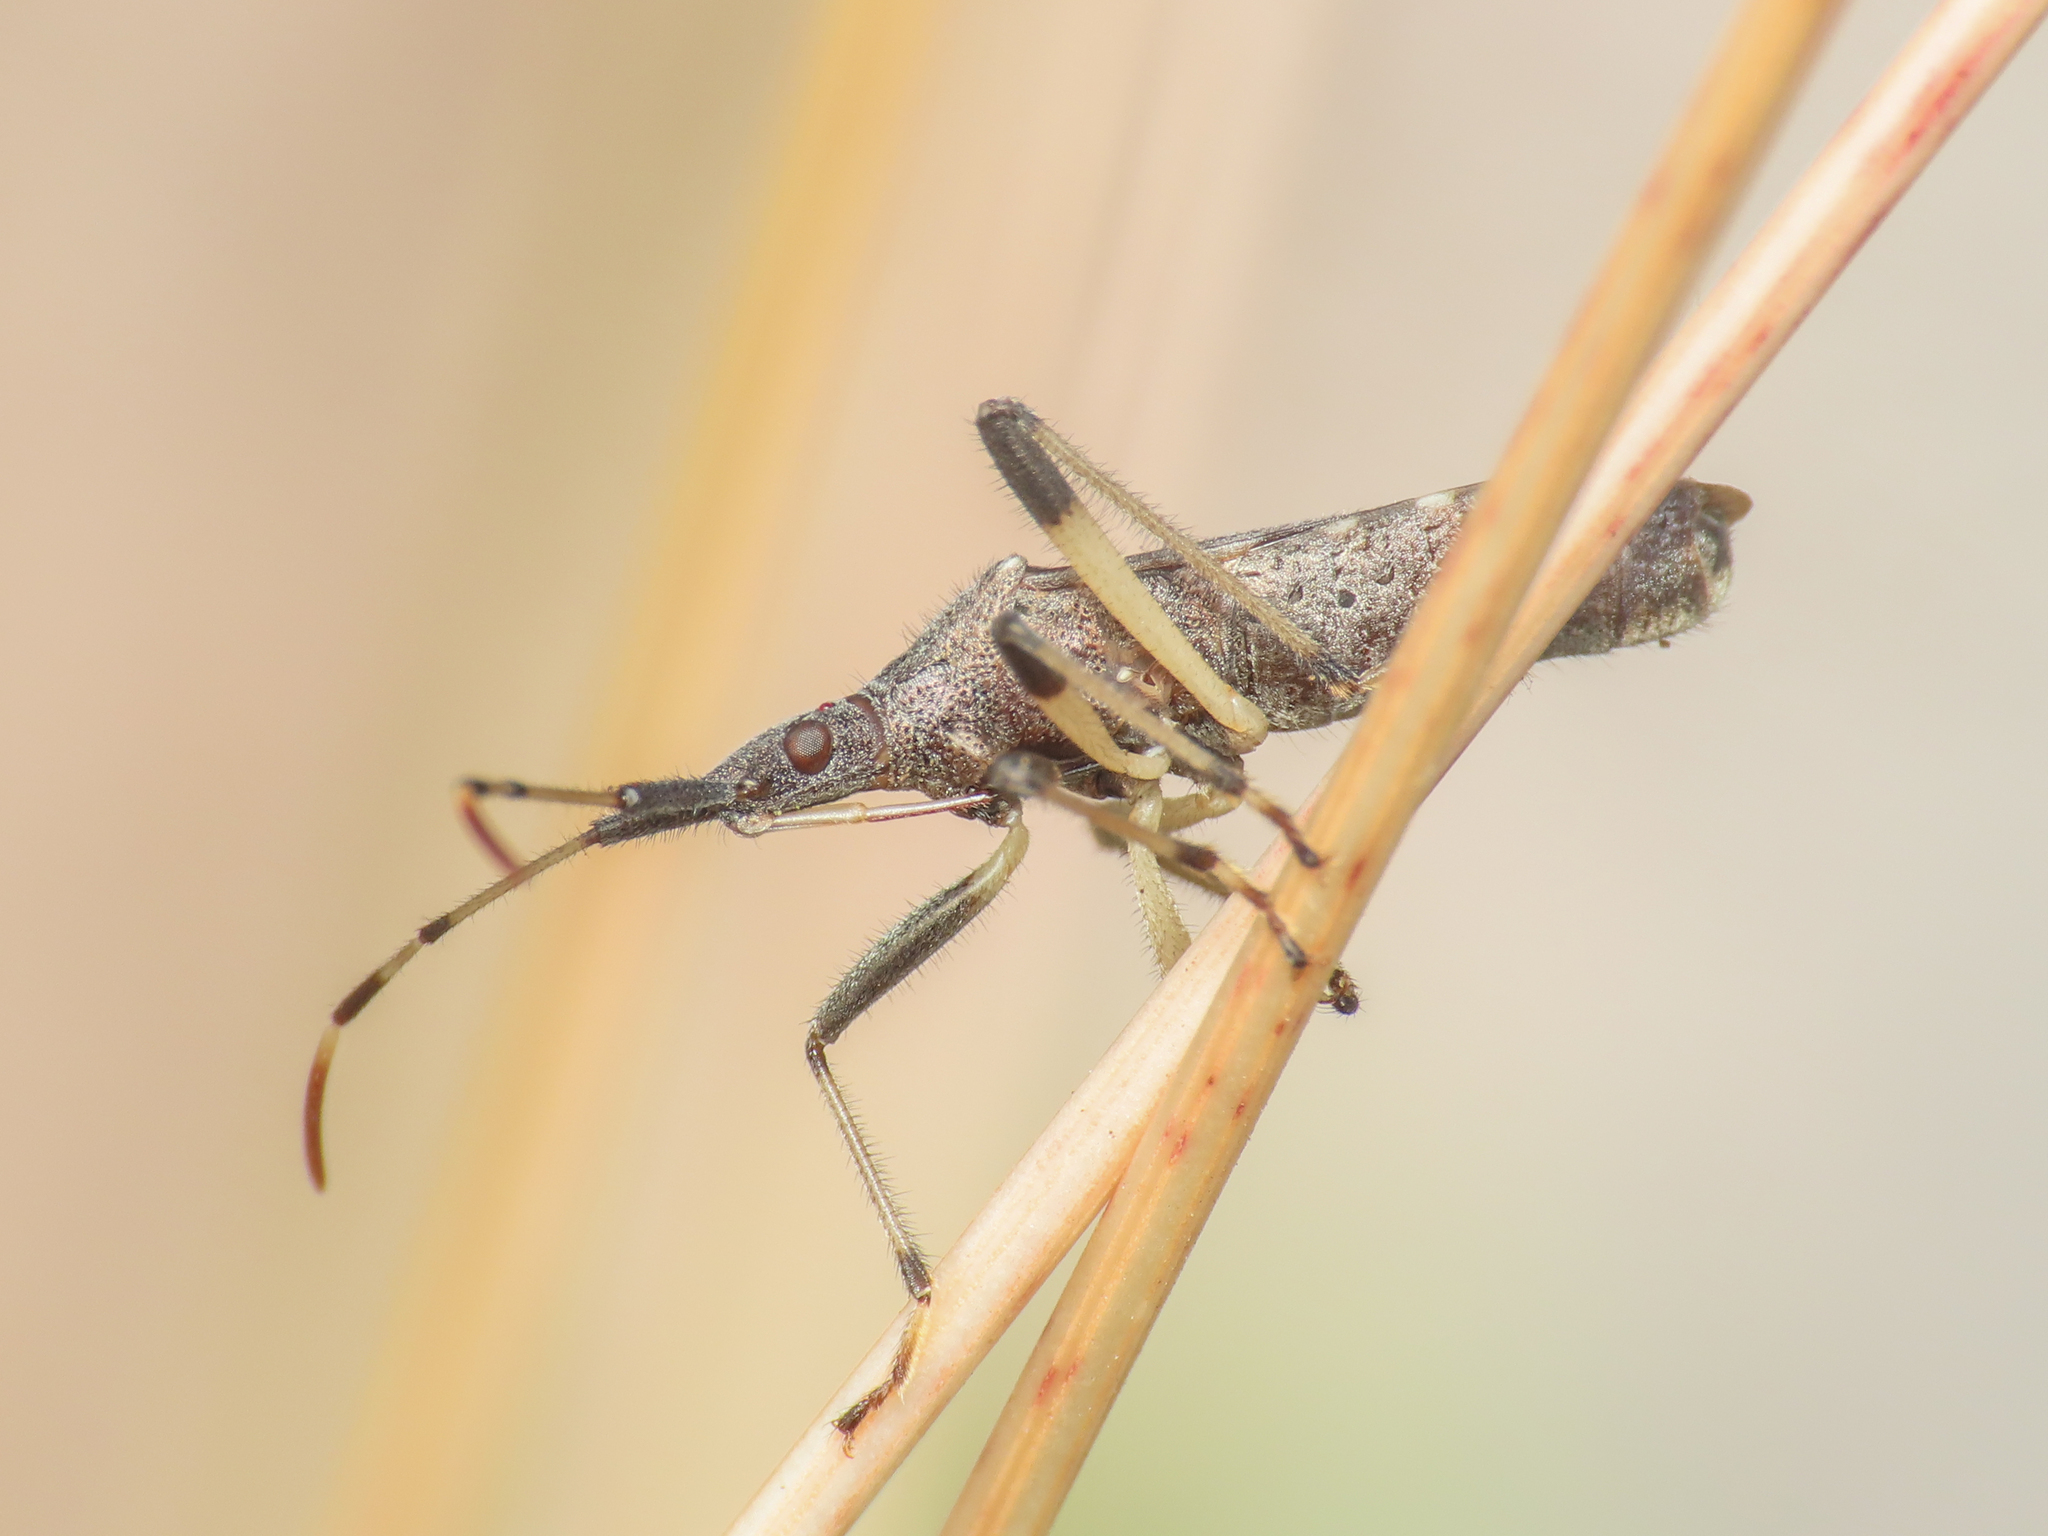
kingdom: Animalia
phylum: Arthropoda
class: Insecta
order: Hemiptera
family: Stenocephalidae
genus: Dicranocephalus
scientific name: Dicranocephalus albipes
